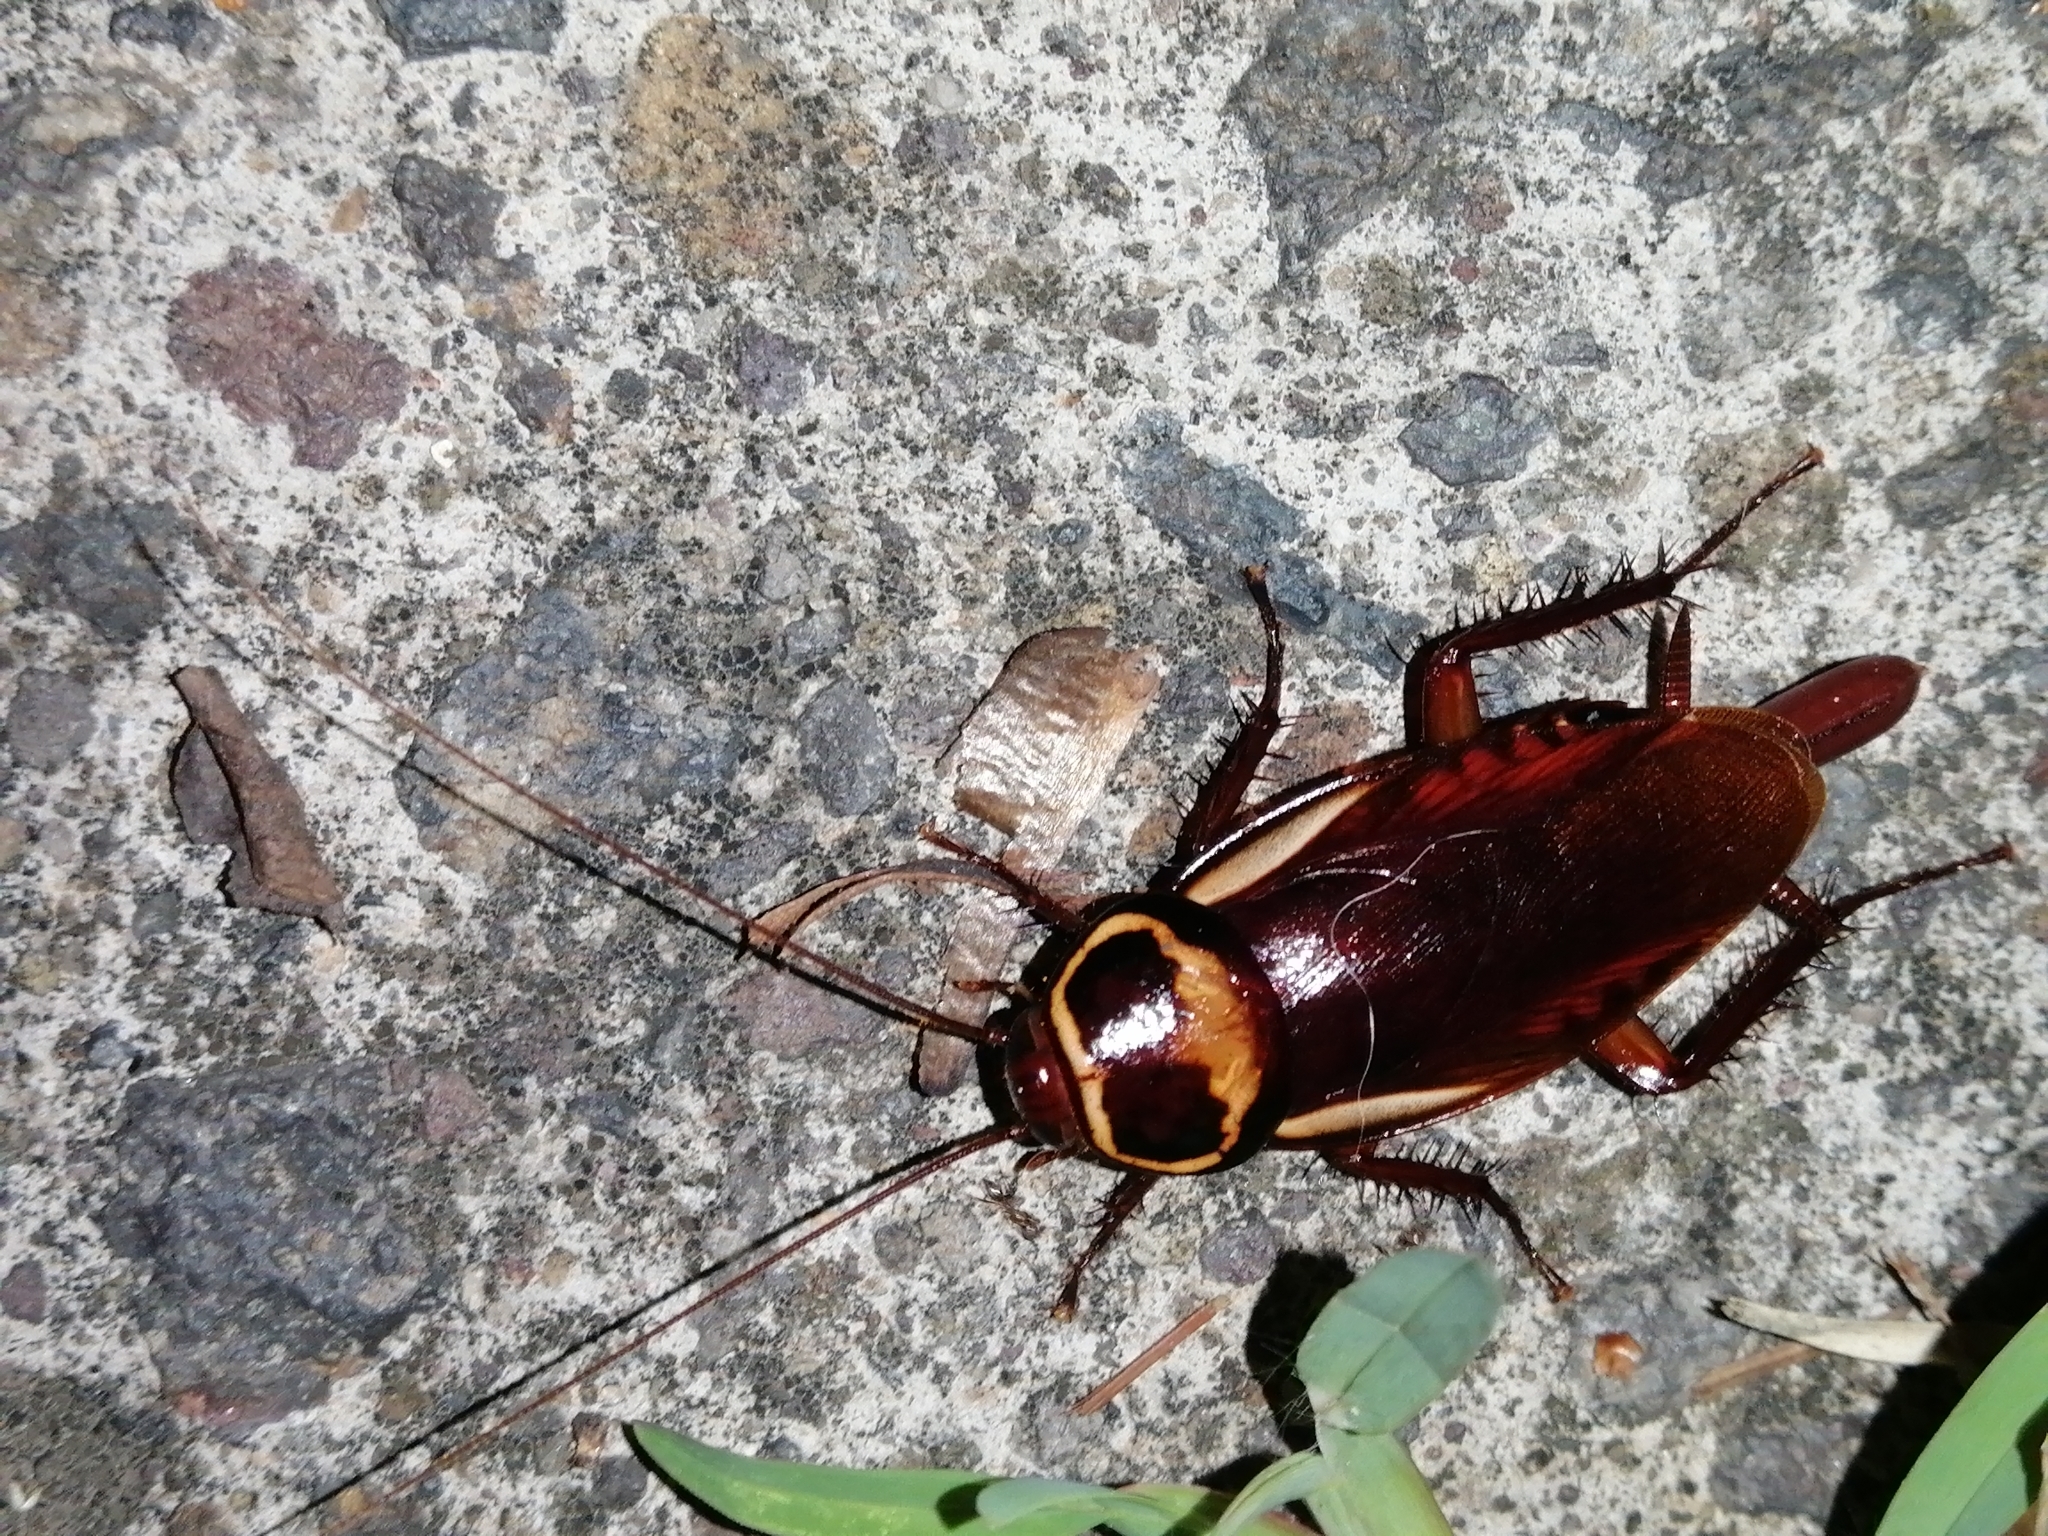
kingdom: Animalia
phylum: Arthropoda
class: Insecta
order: Blattodea
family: Blattidae
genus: Periplaneta
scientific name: Periplaneta australasiae
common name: Australian cockroach
